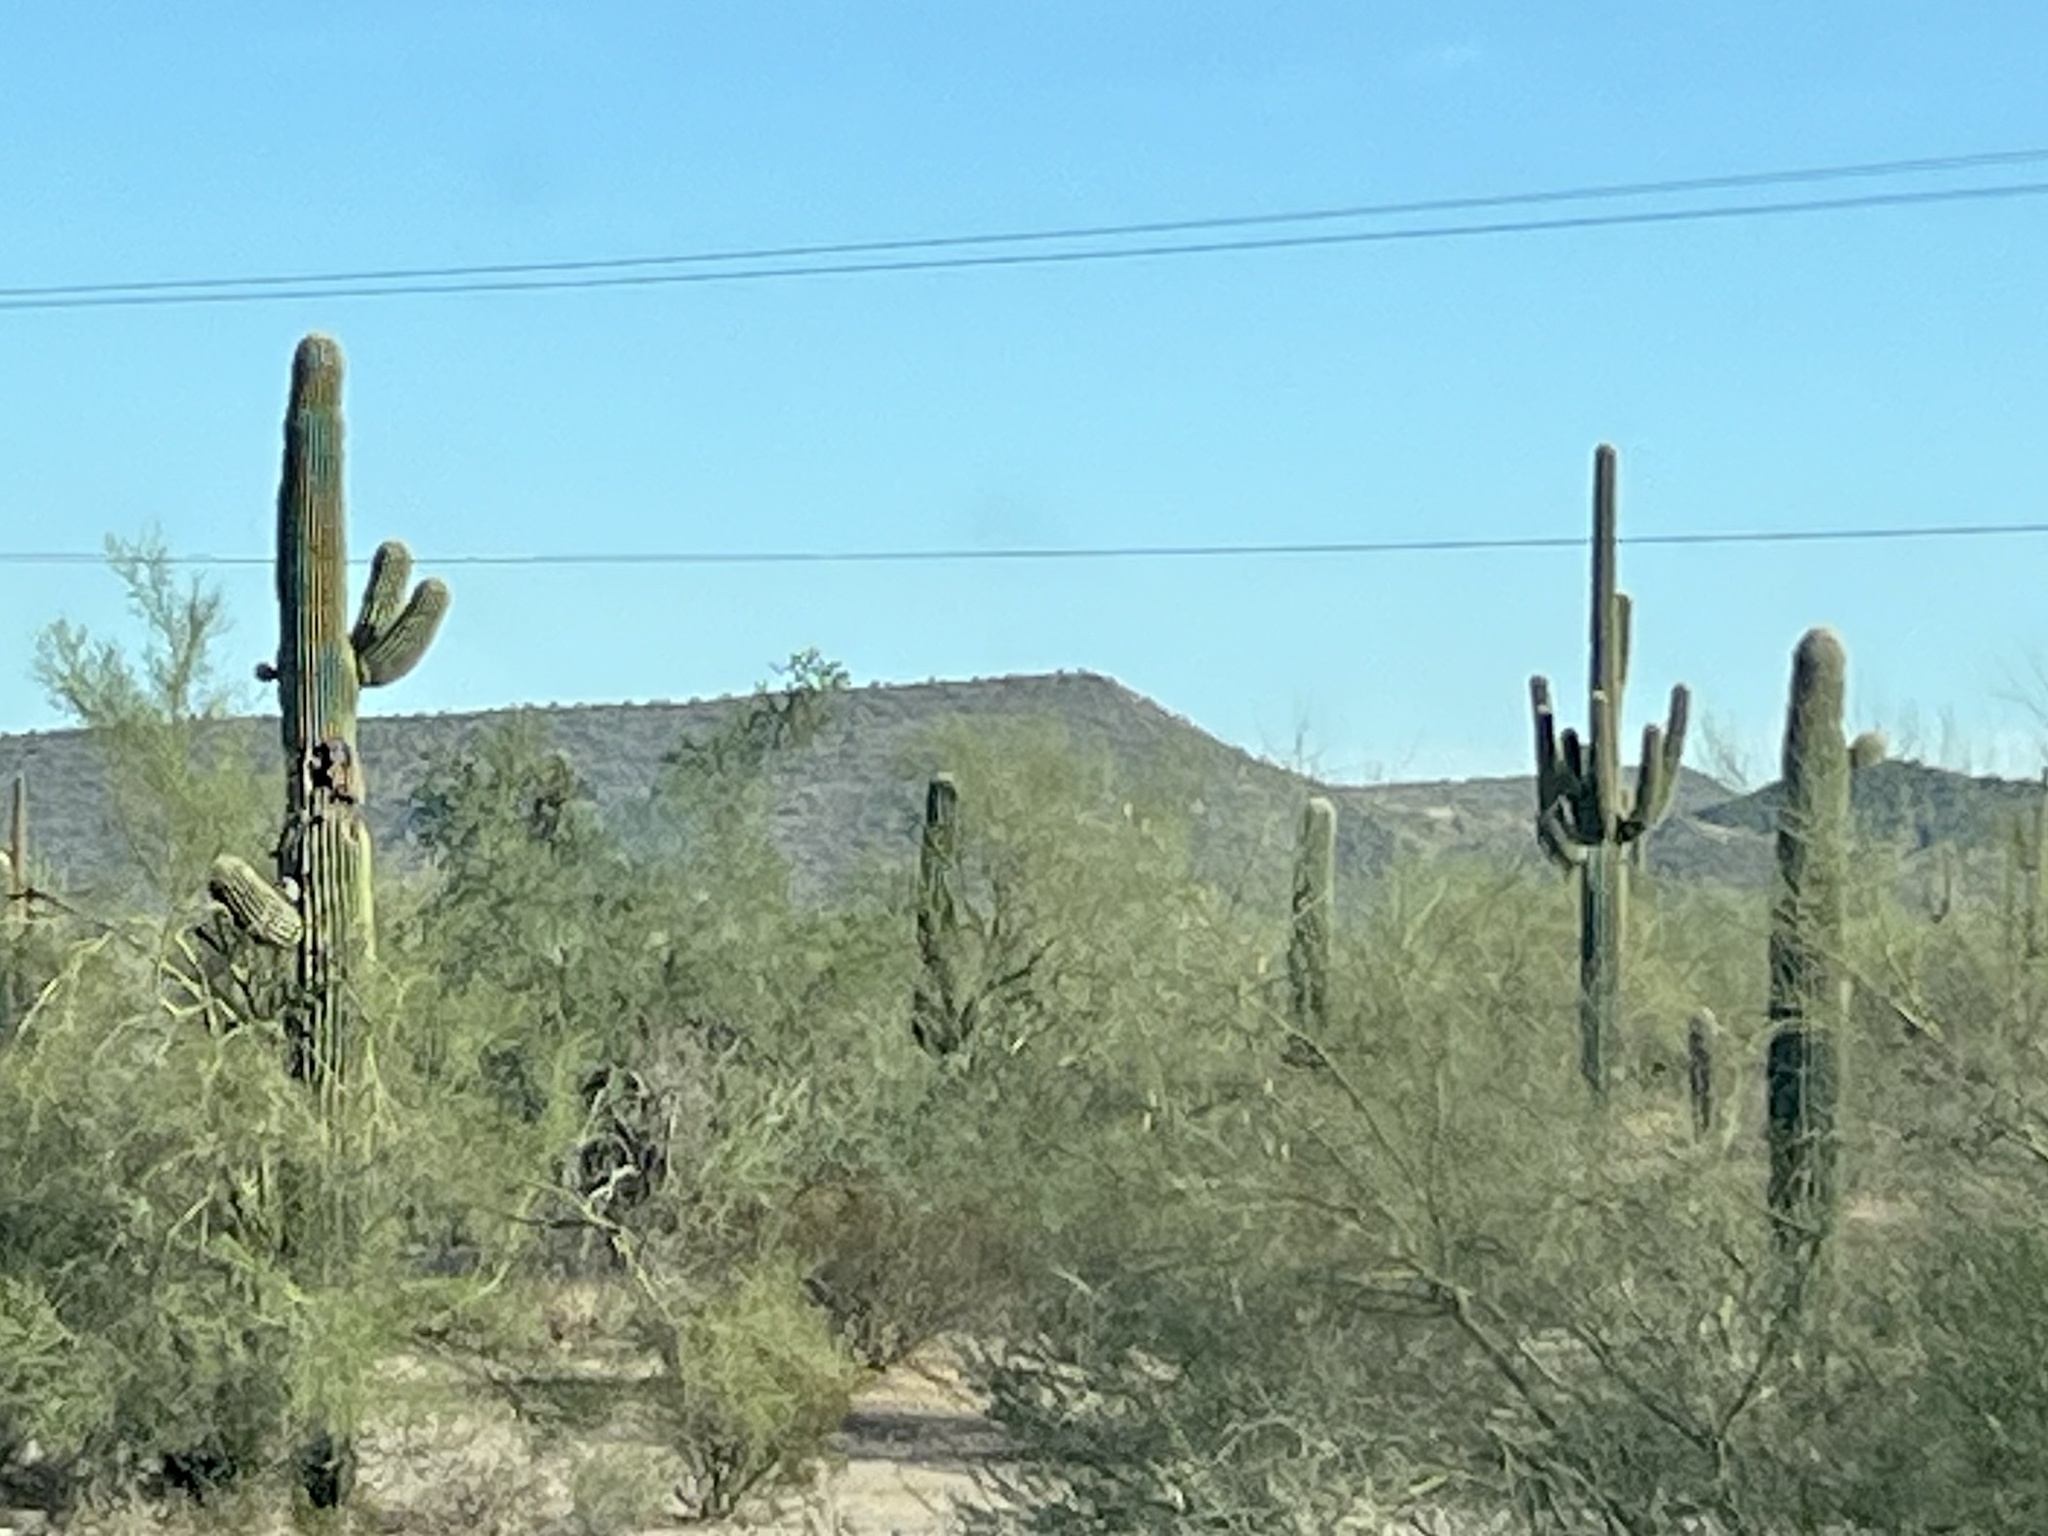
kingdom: Plantae
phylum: Tracheophyta
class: Magnoliopsida
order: Caryophyllales
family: Cactaceae
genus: Carnegiea
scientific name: Carnegiea gigantea
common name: Saguaro
